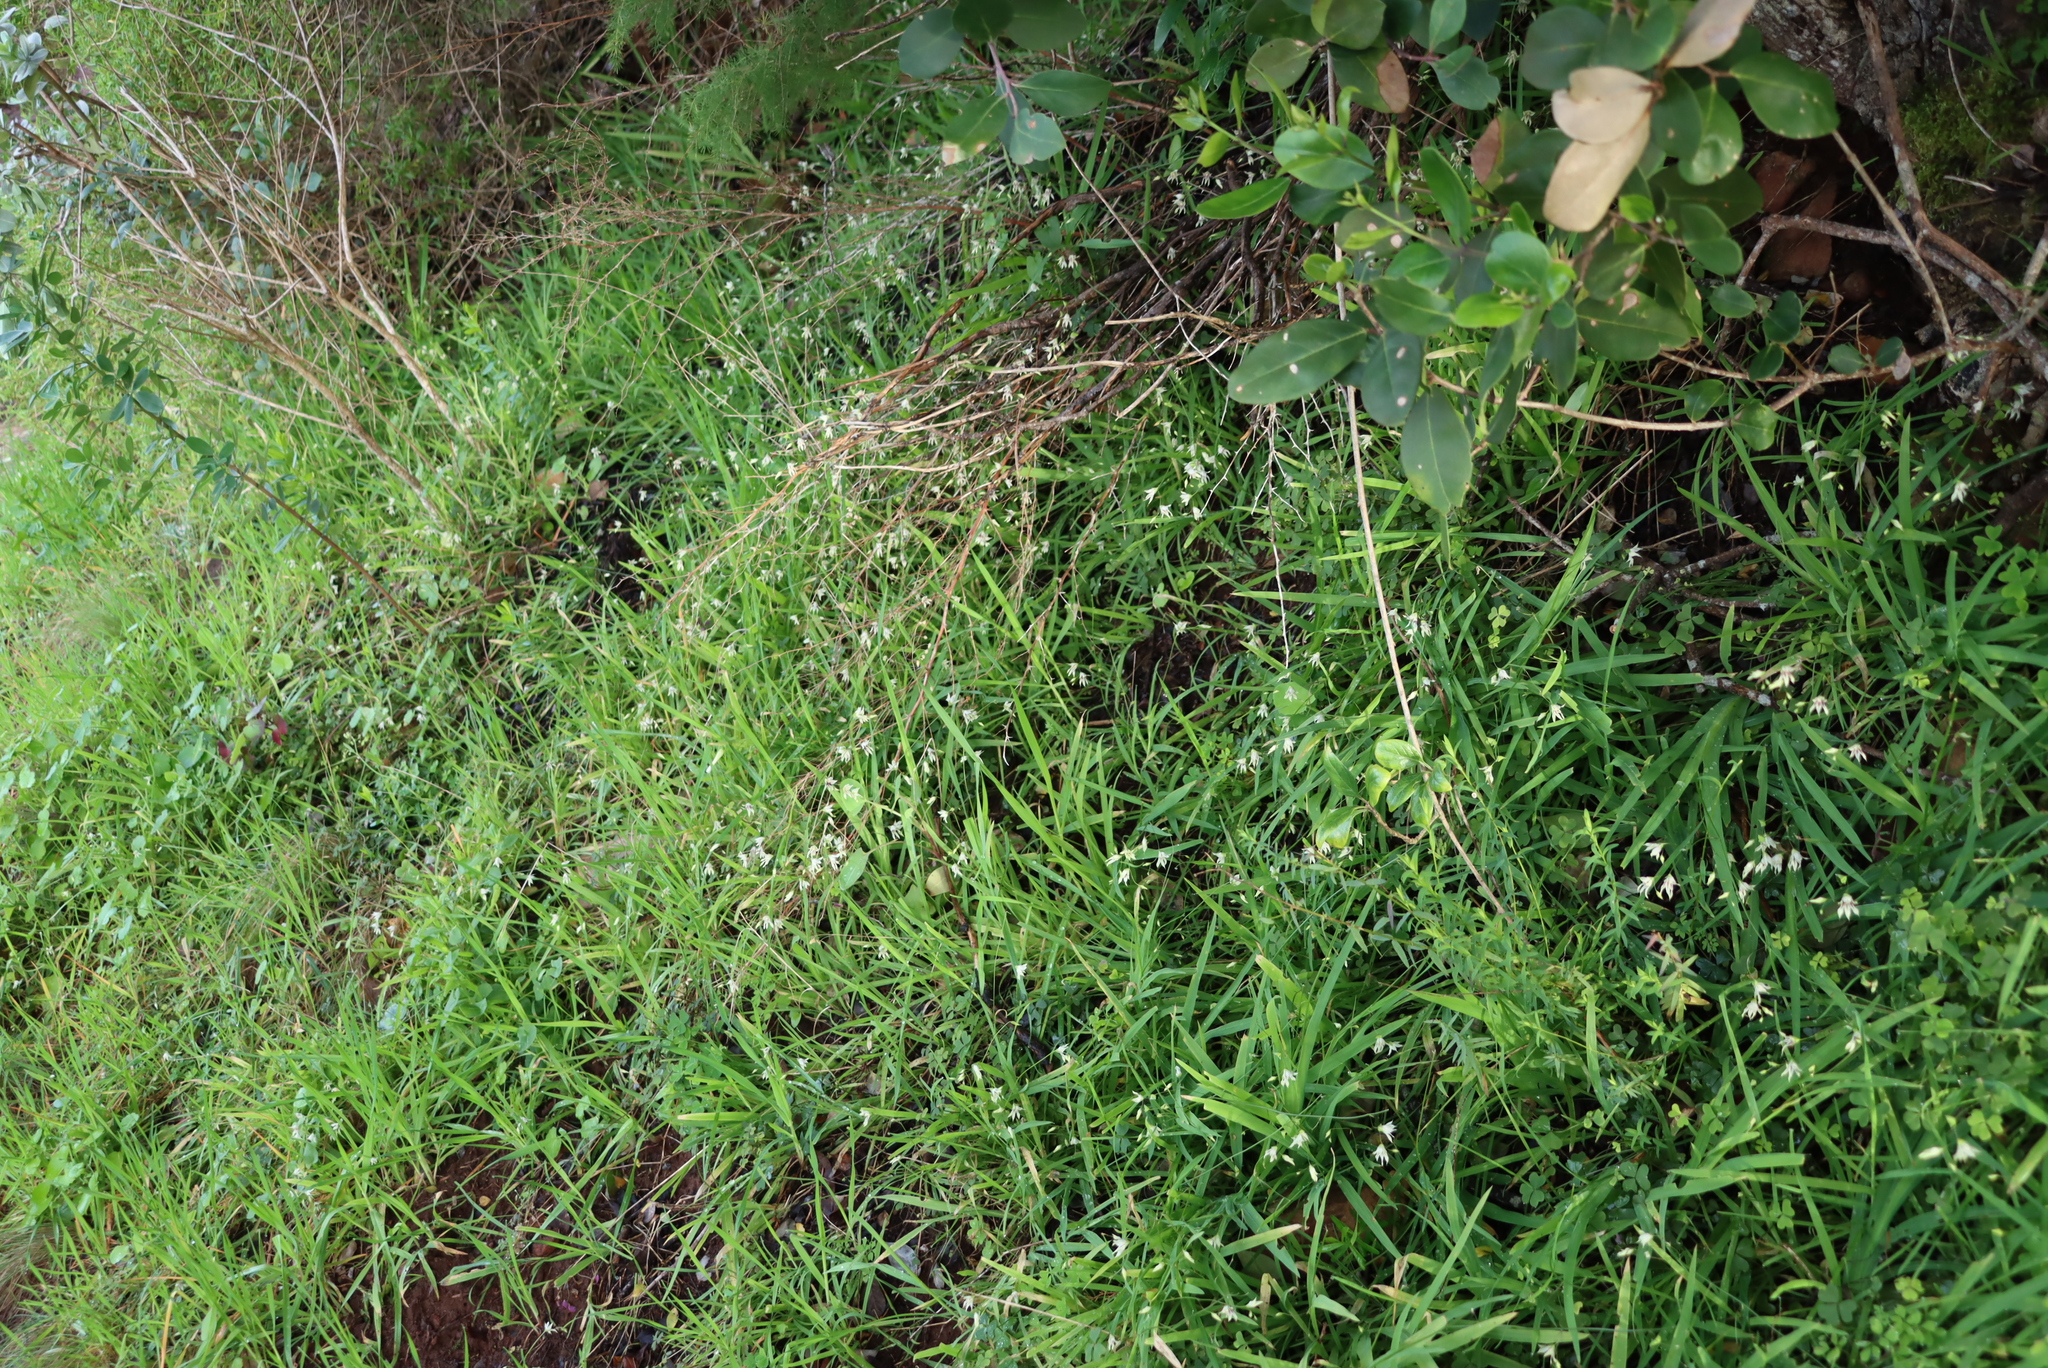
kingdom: Plantae
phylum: Tracheophyta
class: Liliopsida
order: Asparagales
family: Iridaceae
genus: Melasphaerula
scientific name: Melasphaerula graminea
